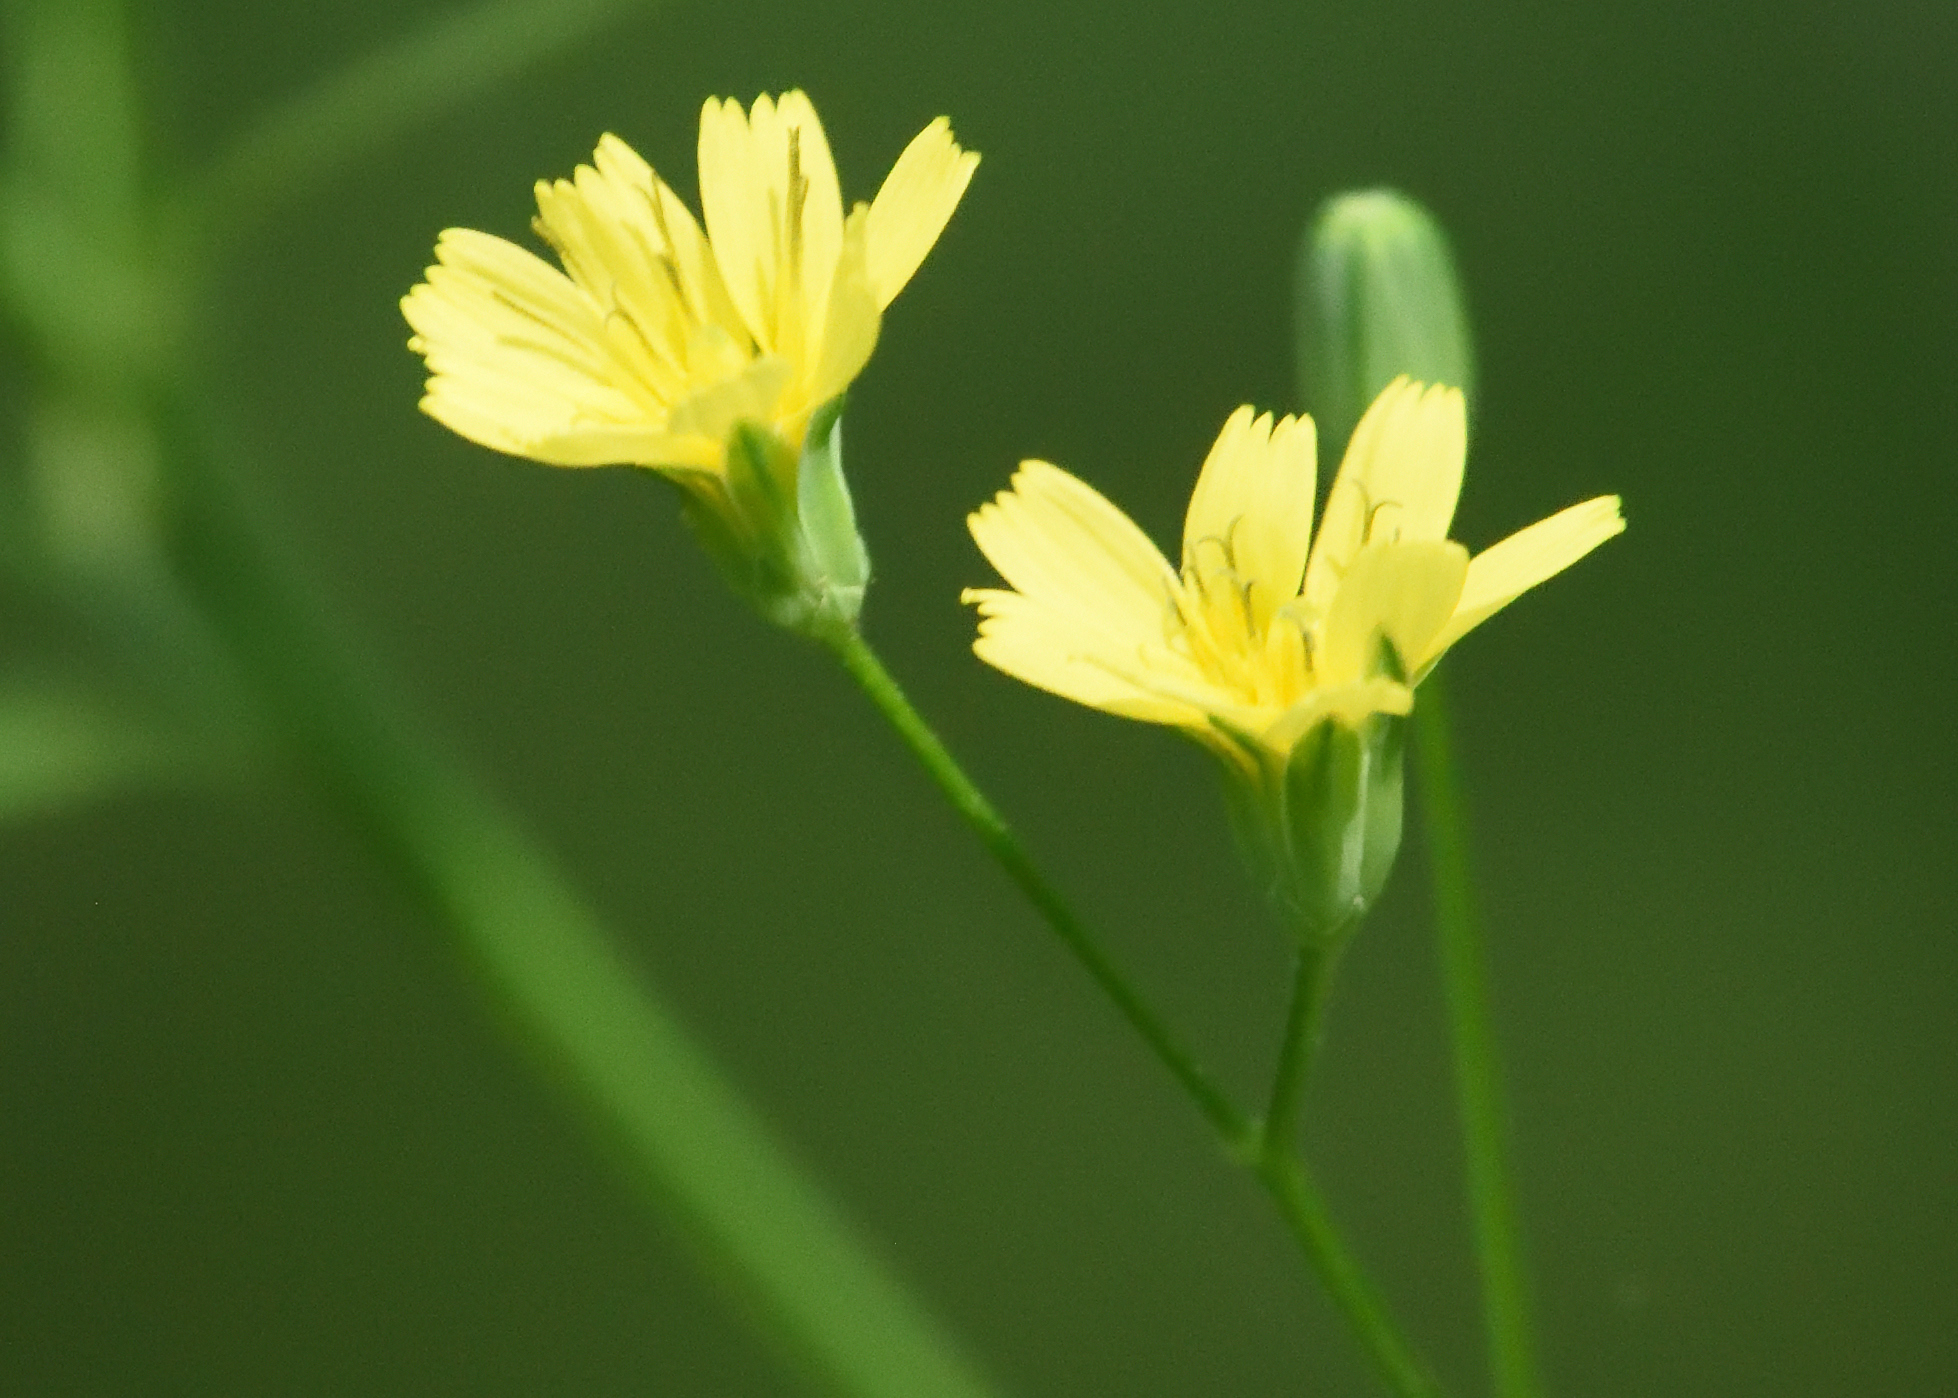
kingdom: Plantae
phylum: Tracheophyta
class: Magnoliopsida
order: Asterales
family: Asteraceae
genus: Lapsana
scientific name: Lapsana communis
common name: Nipplewort
